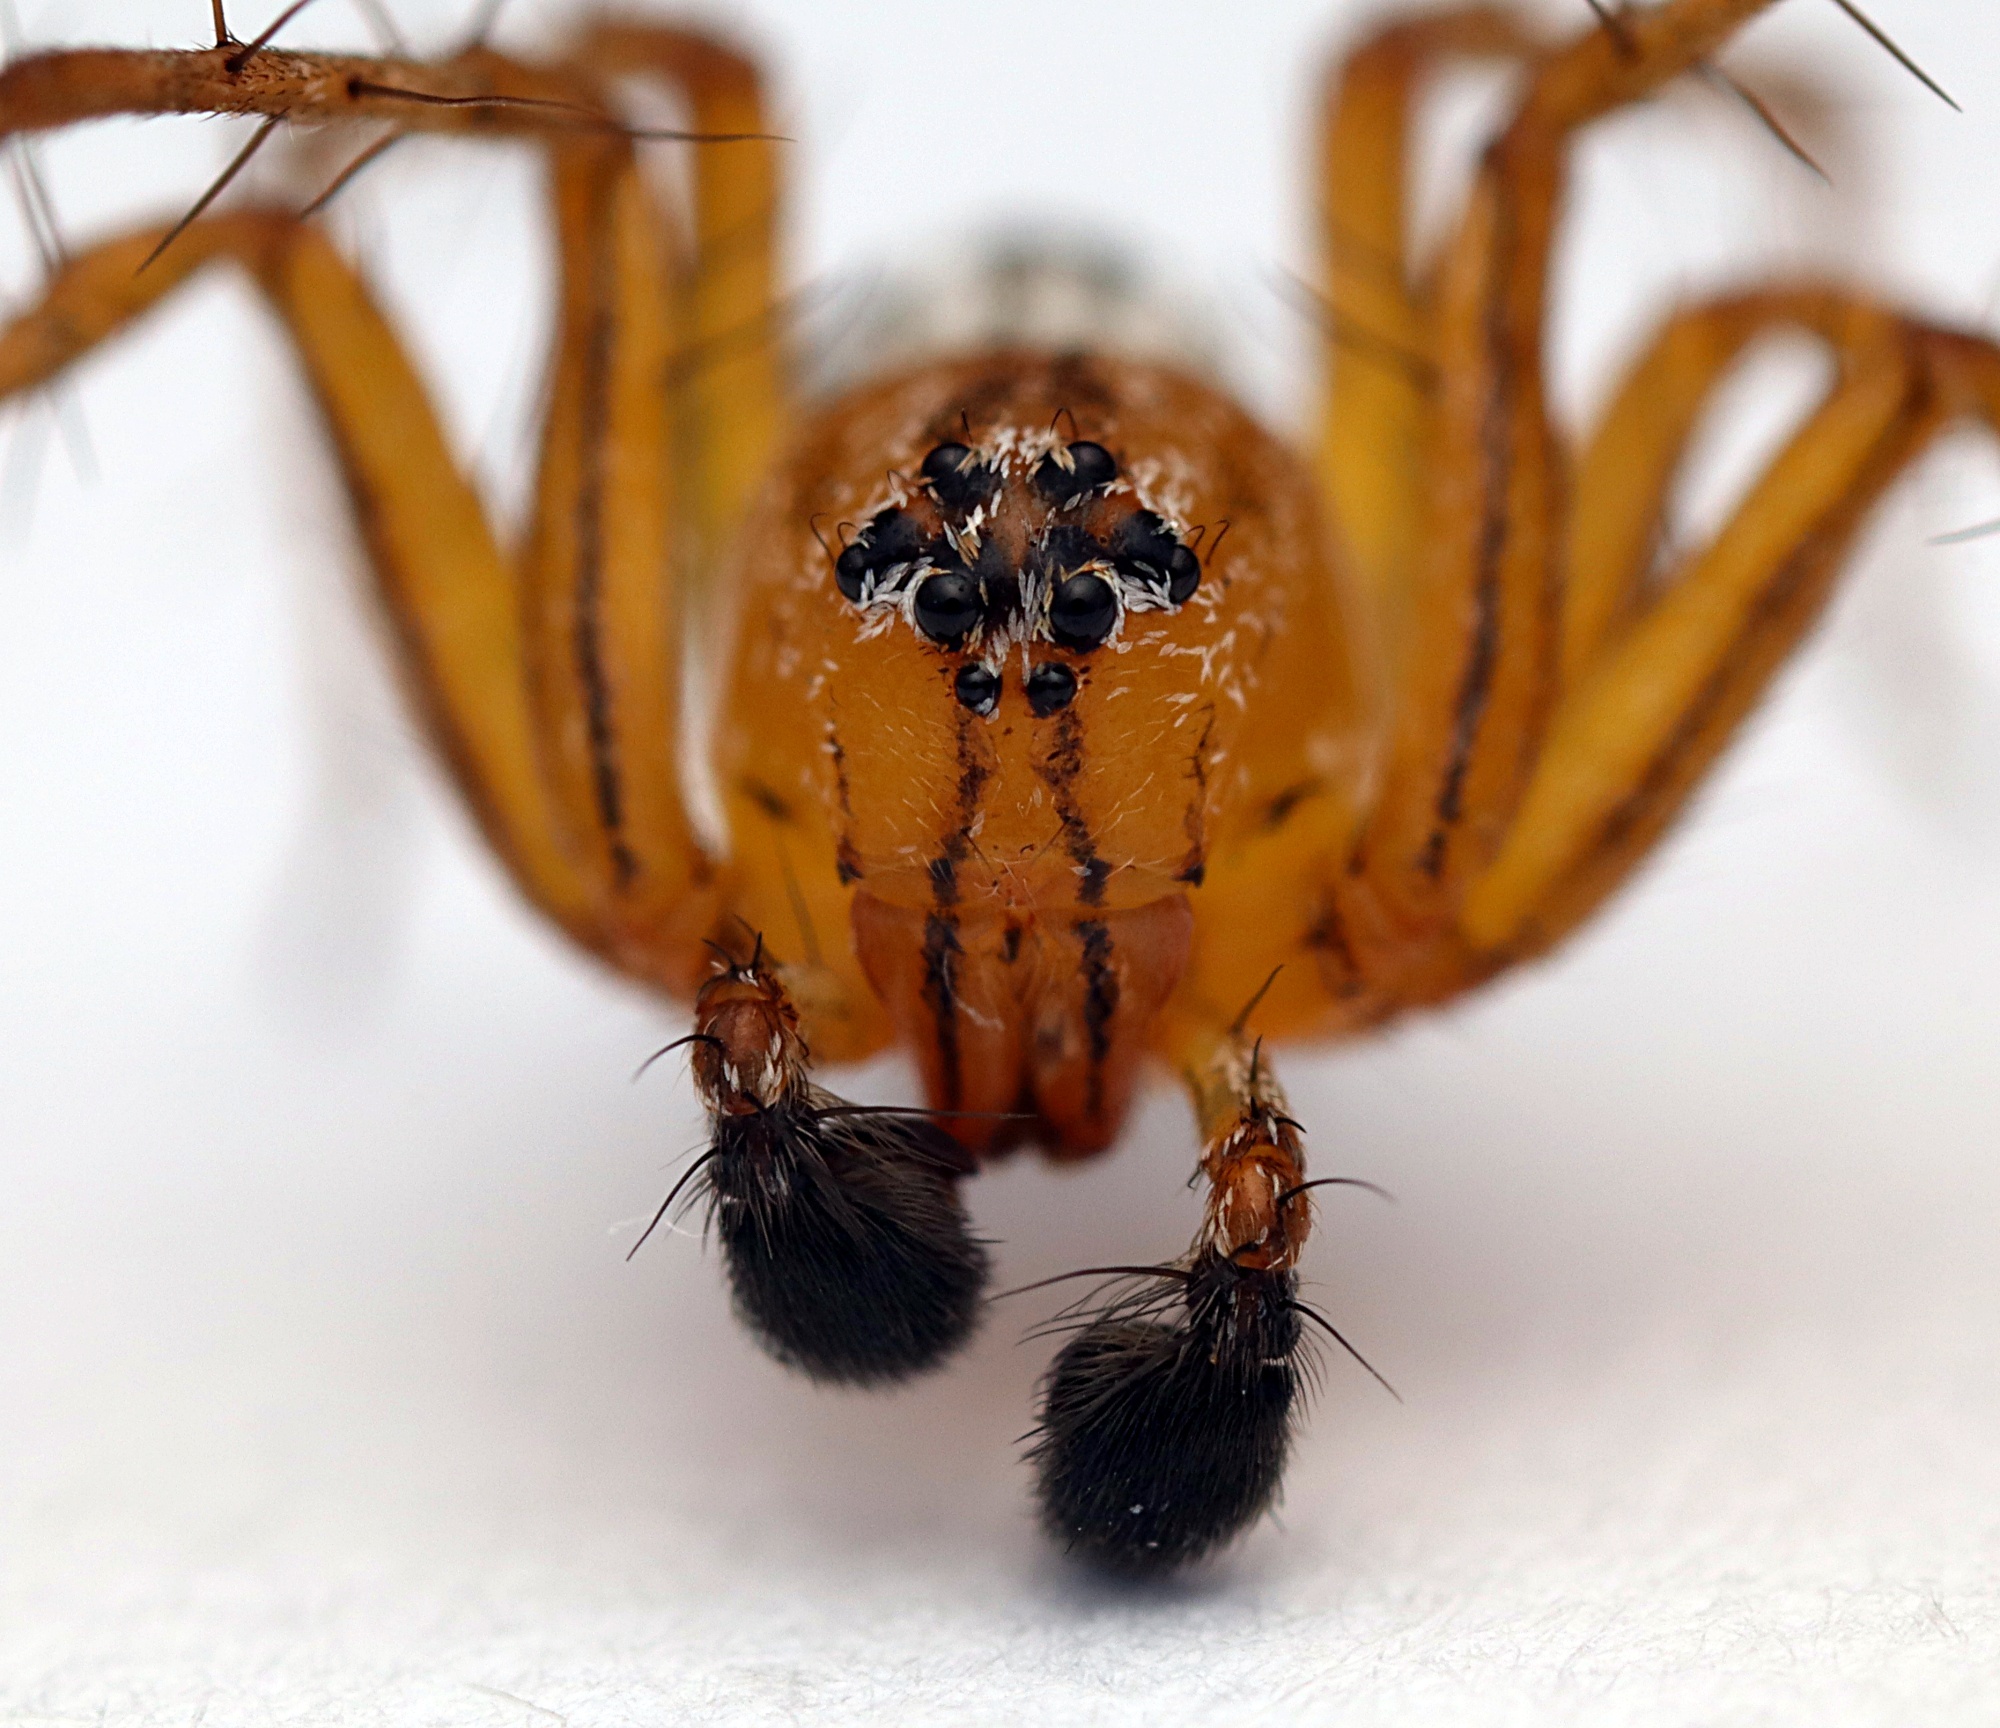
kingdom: Animalia
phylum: Arthropoda
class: Arachnida
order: Araneae
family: Oxyopidae
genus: Oxyopes
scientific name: Oxyopes gracilipes
